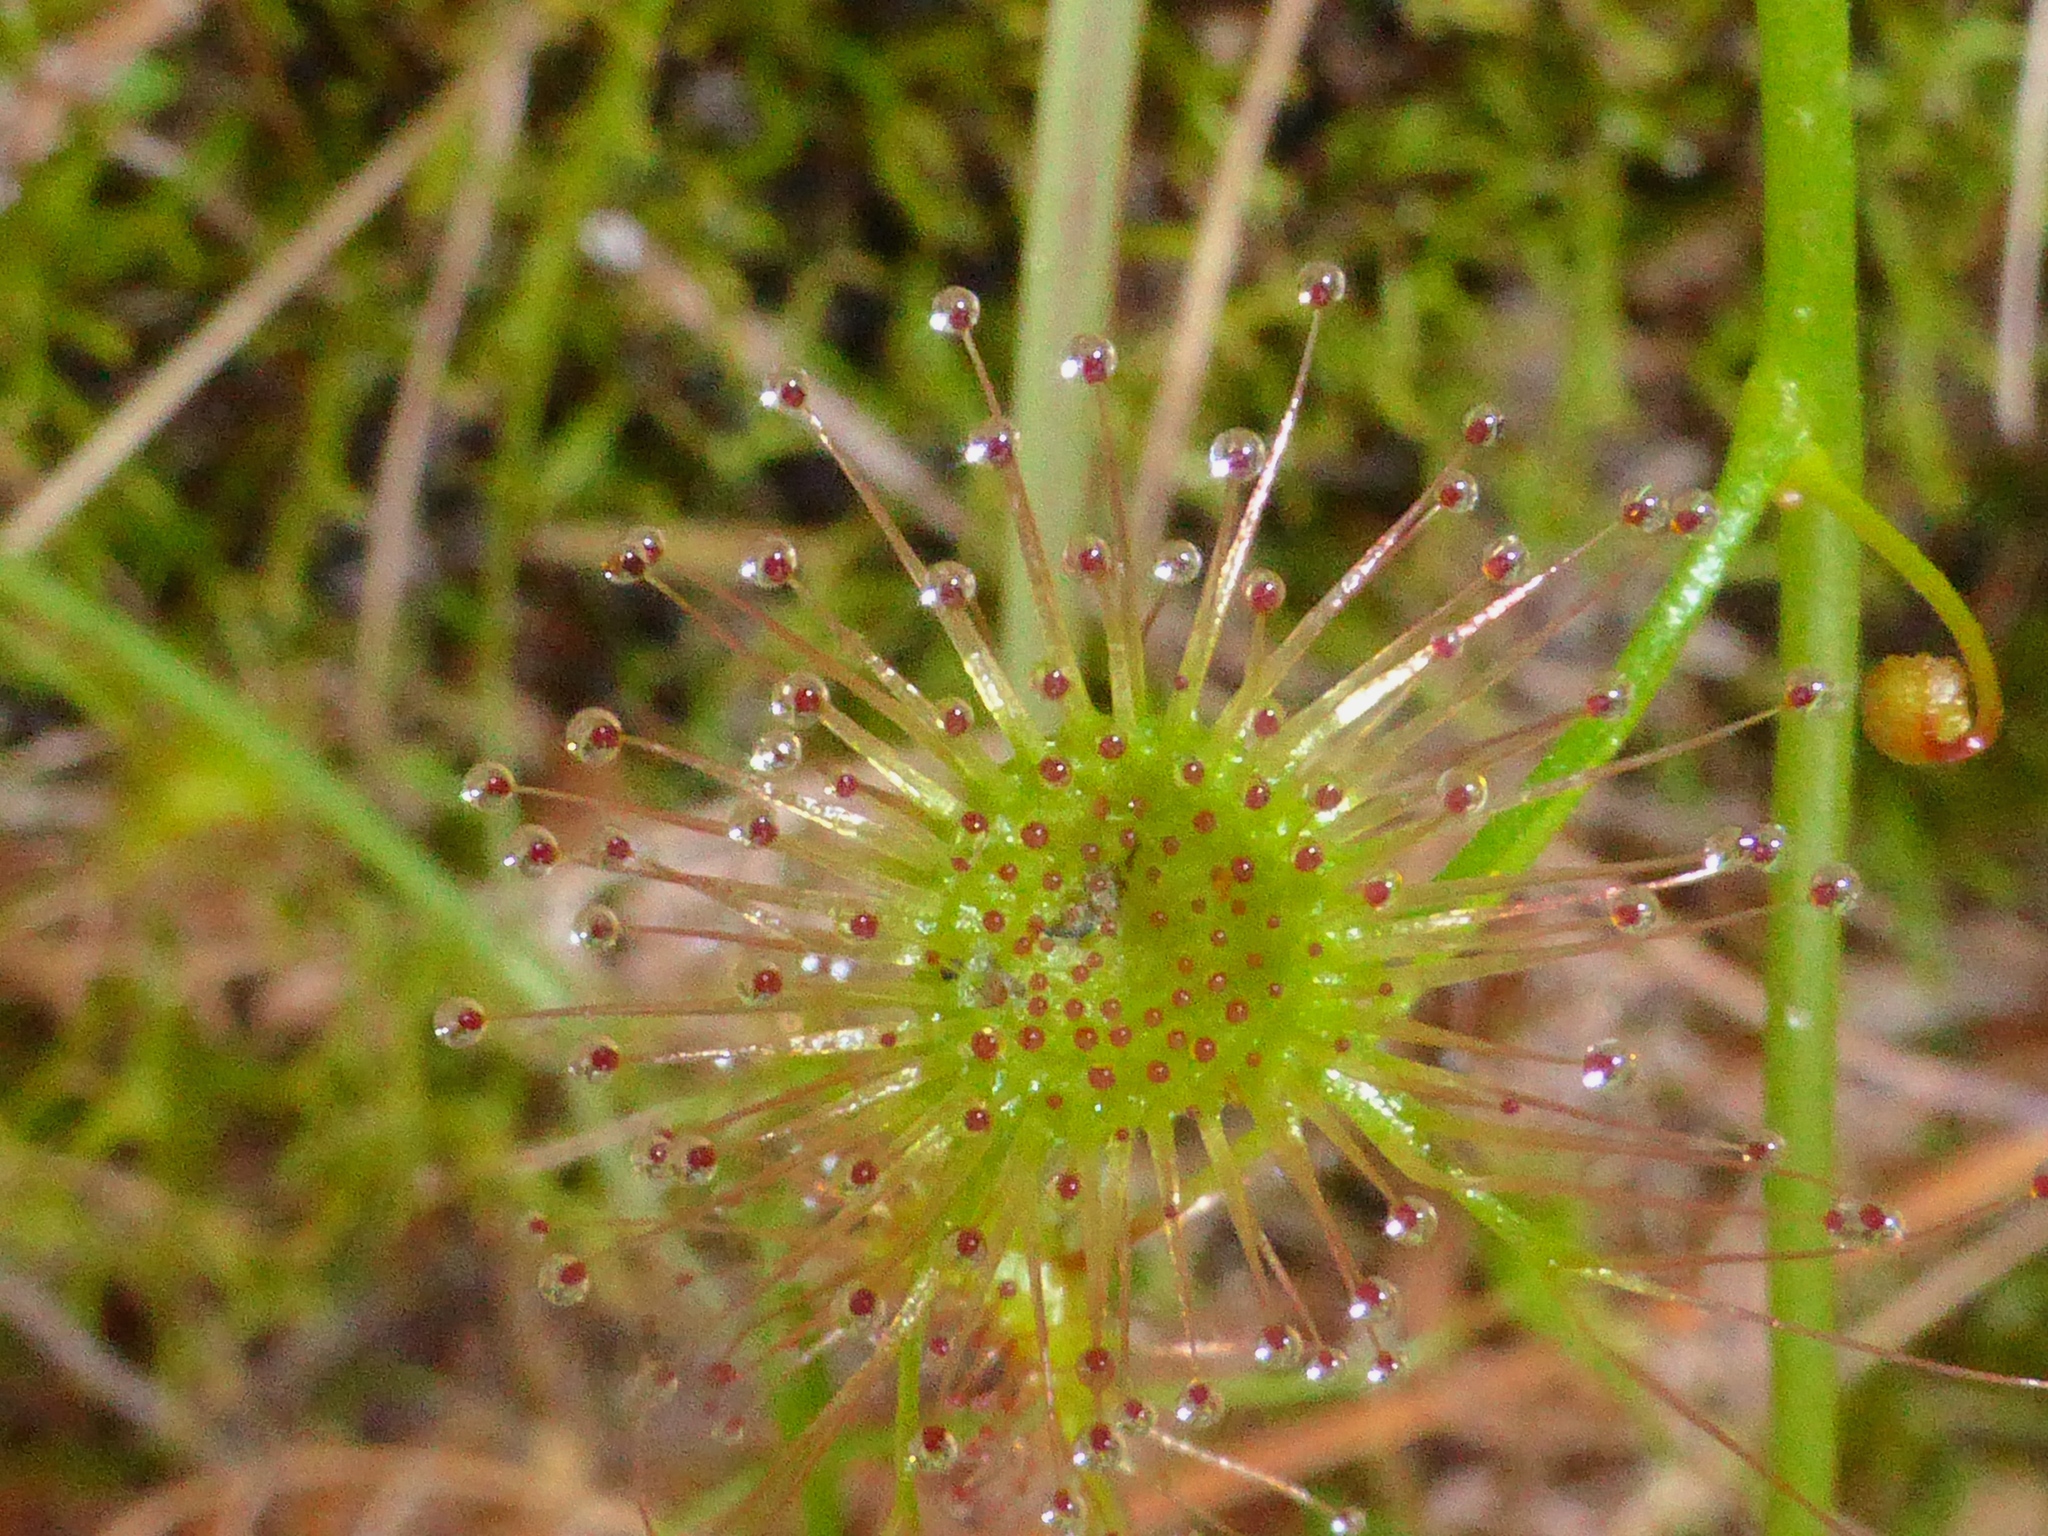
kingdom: Plantae
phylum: Tracheophyta
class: Magnoliopsida
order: Caryophyllales
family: Droseraceae
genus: Drosera
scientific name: Drosera peltata
